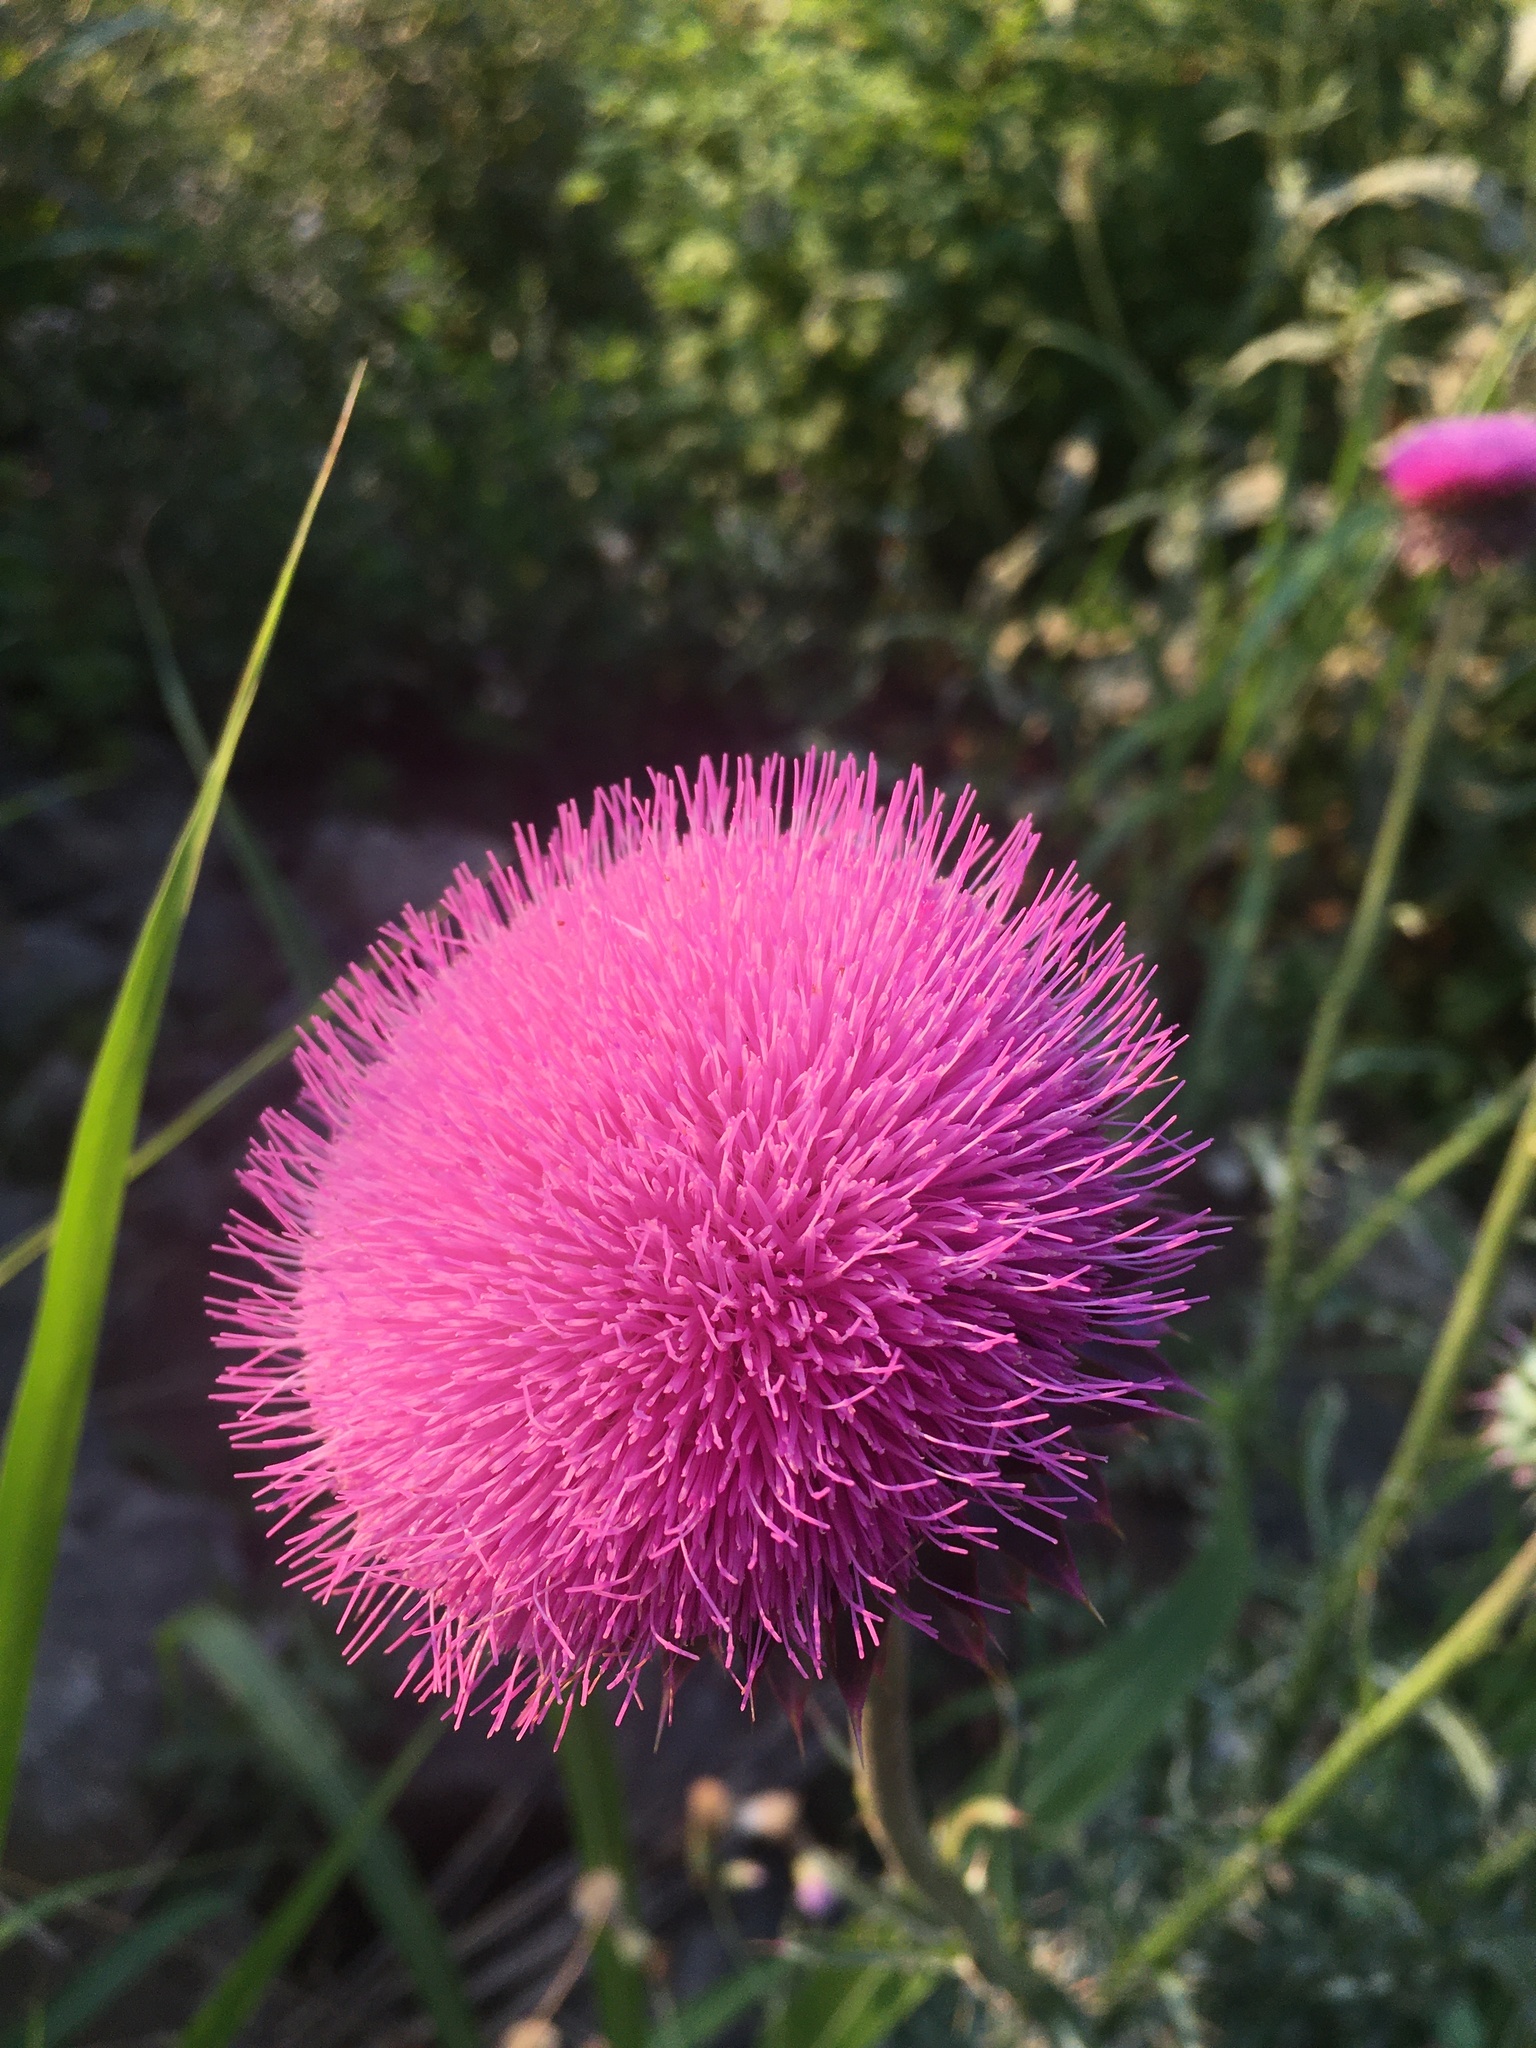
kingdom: Plantae
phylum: Tracheophyta
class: Magnoliopsida
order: Asterales
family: Asteraceae
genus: Carduus
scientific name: Carduus nutans
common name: Musk thistle
